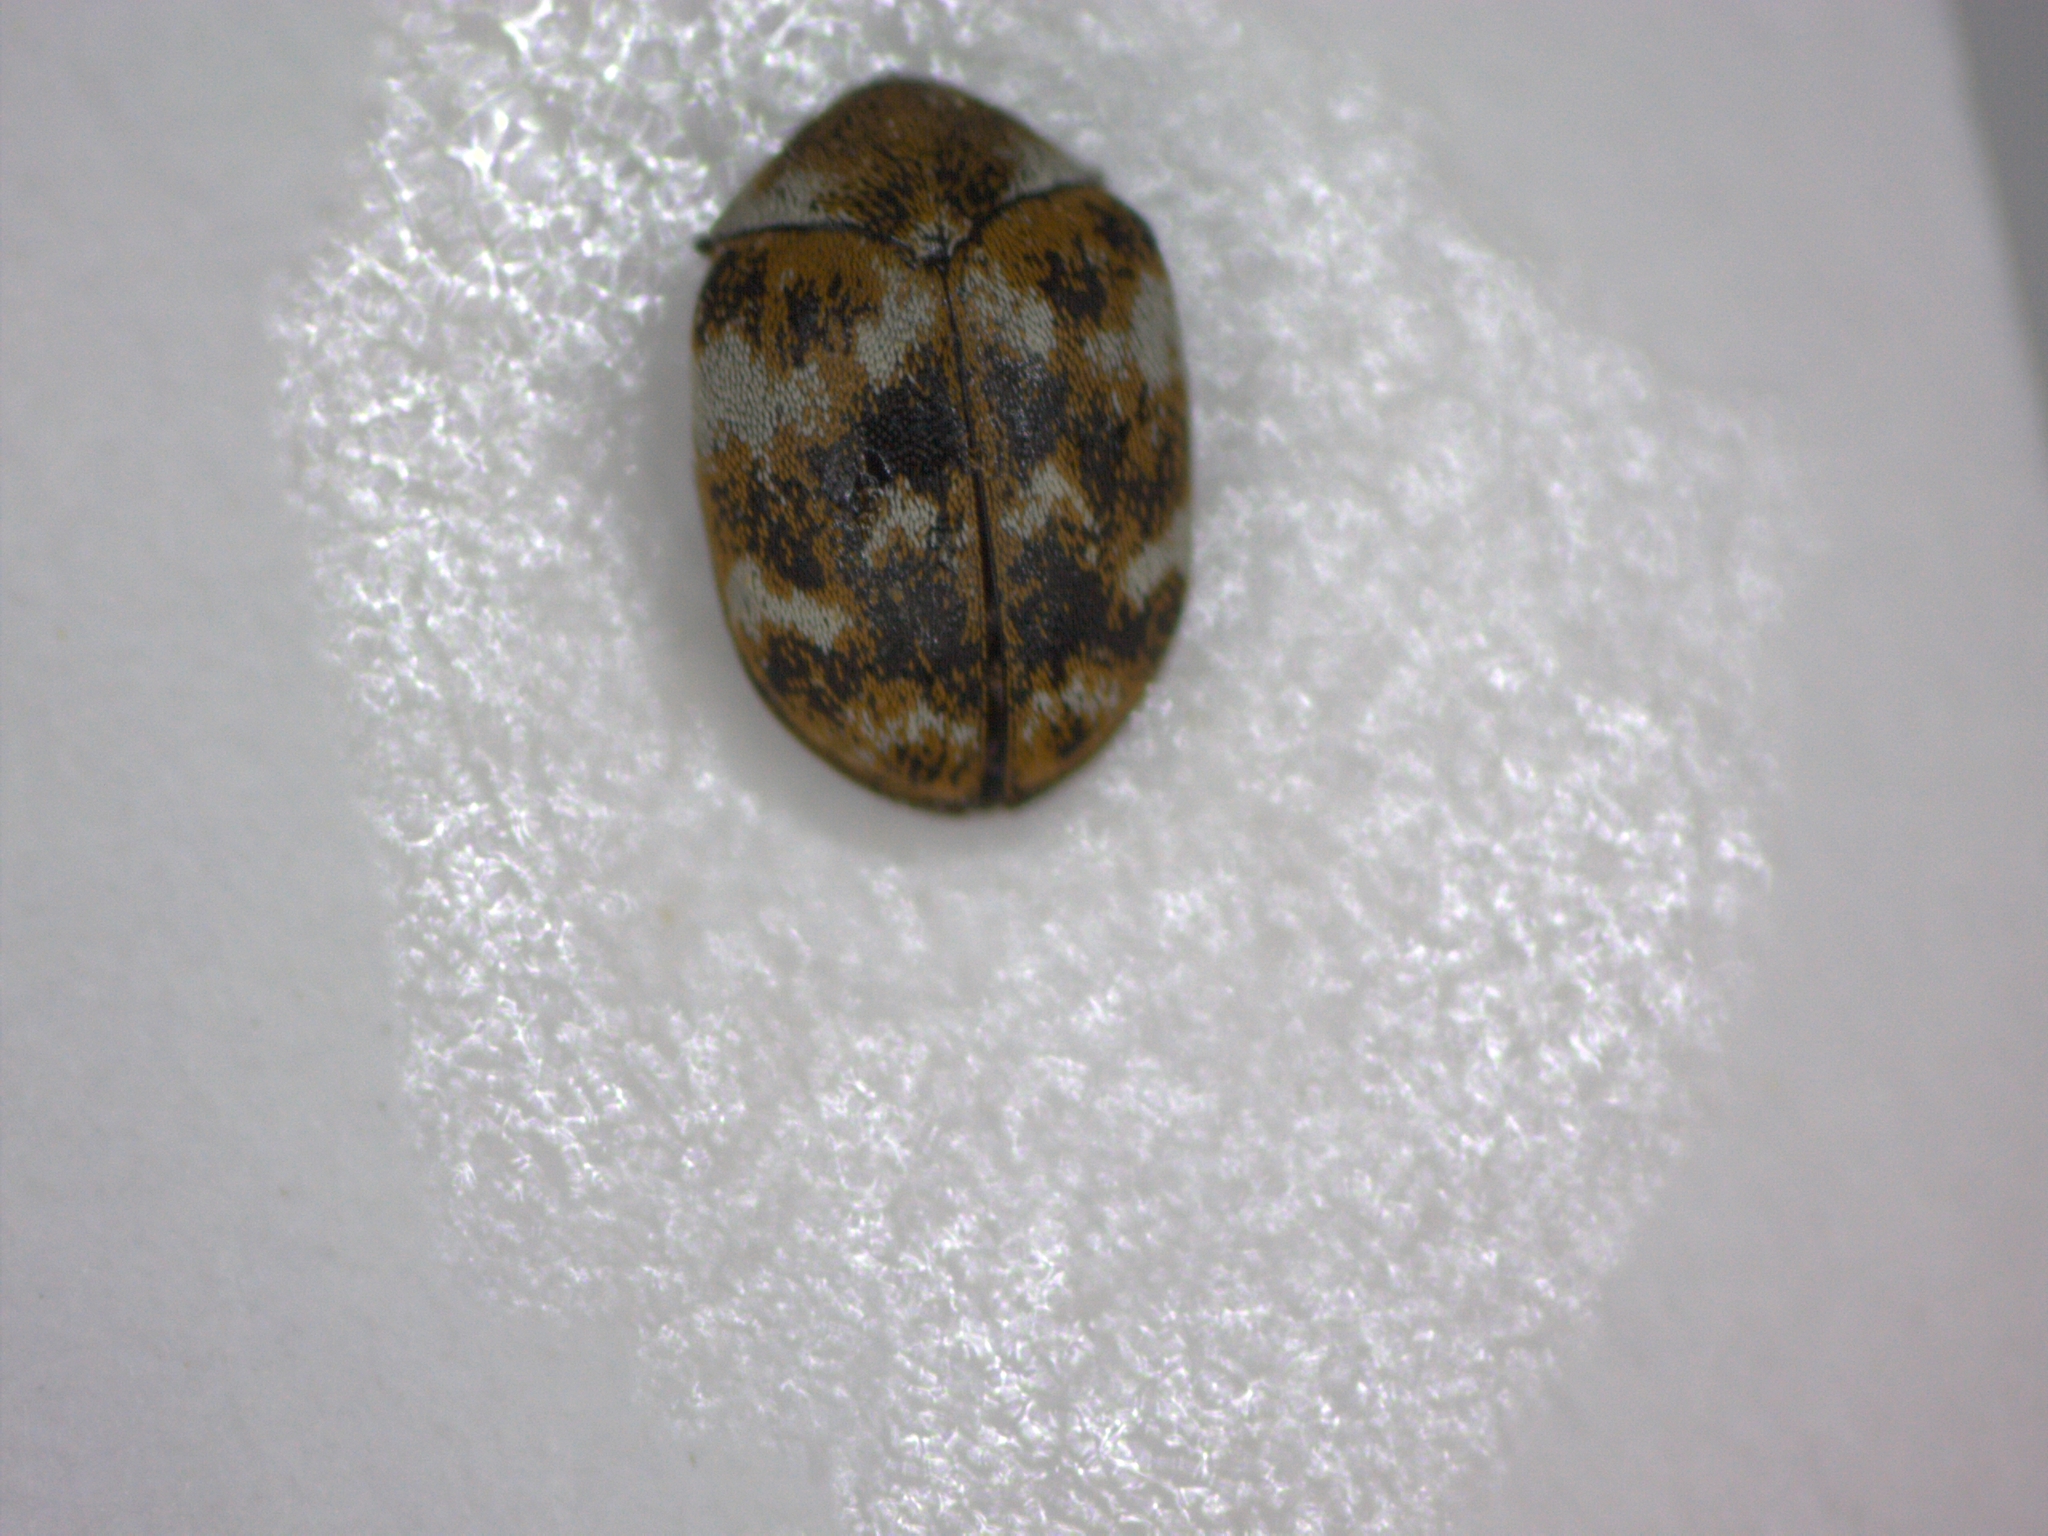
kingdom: Animalia
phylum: Arthropoda
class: Insecta
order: Coleoptera
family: Dermestidae
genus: Anthrenus
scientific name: Anthrenus verbasci
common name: Varied carpet beetle
